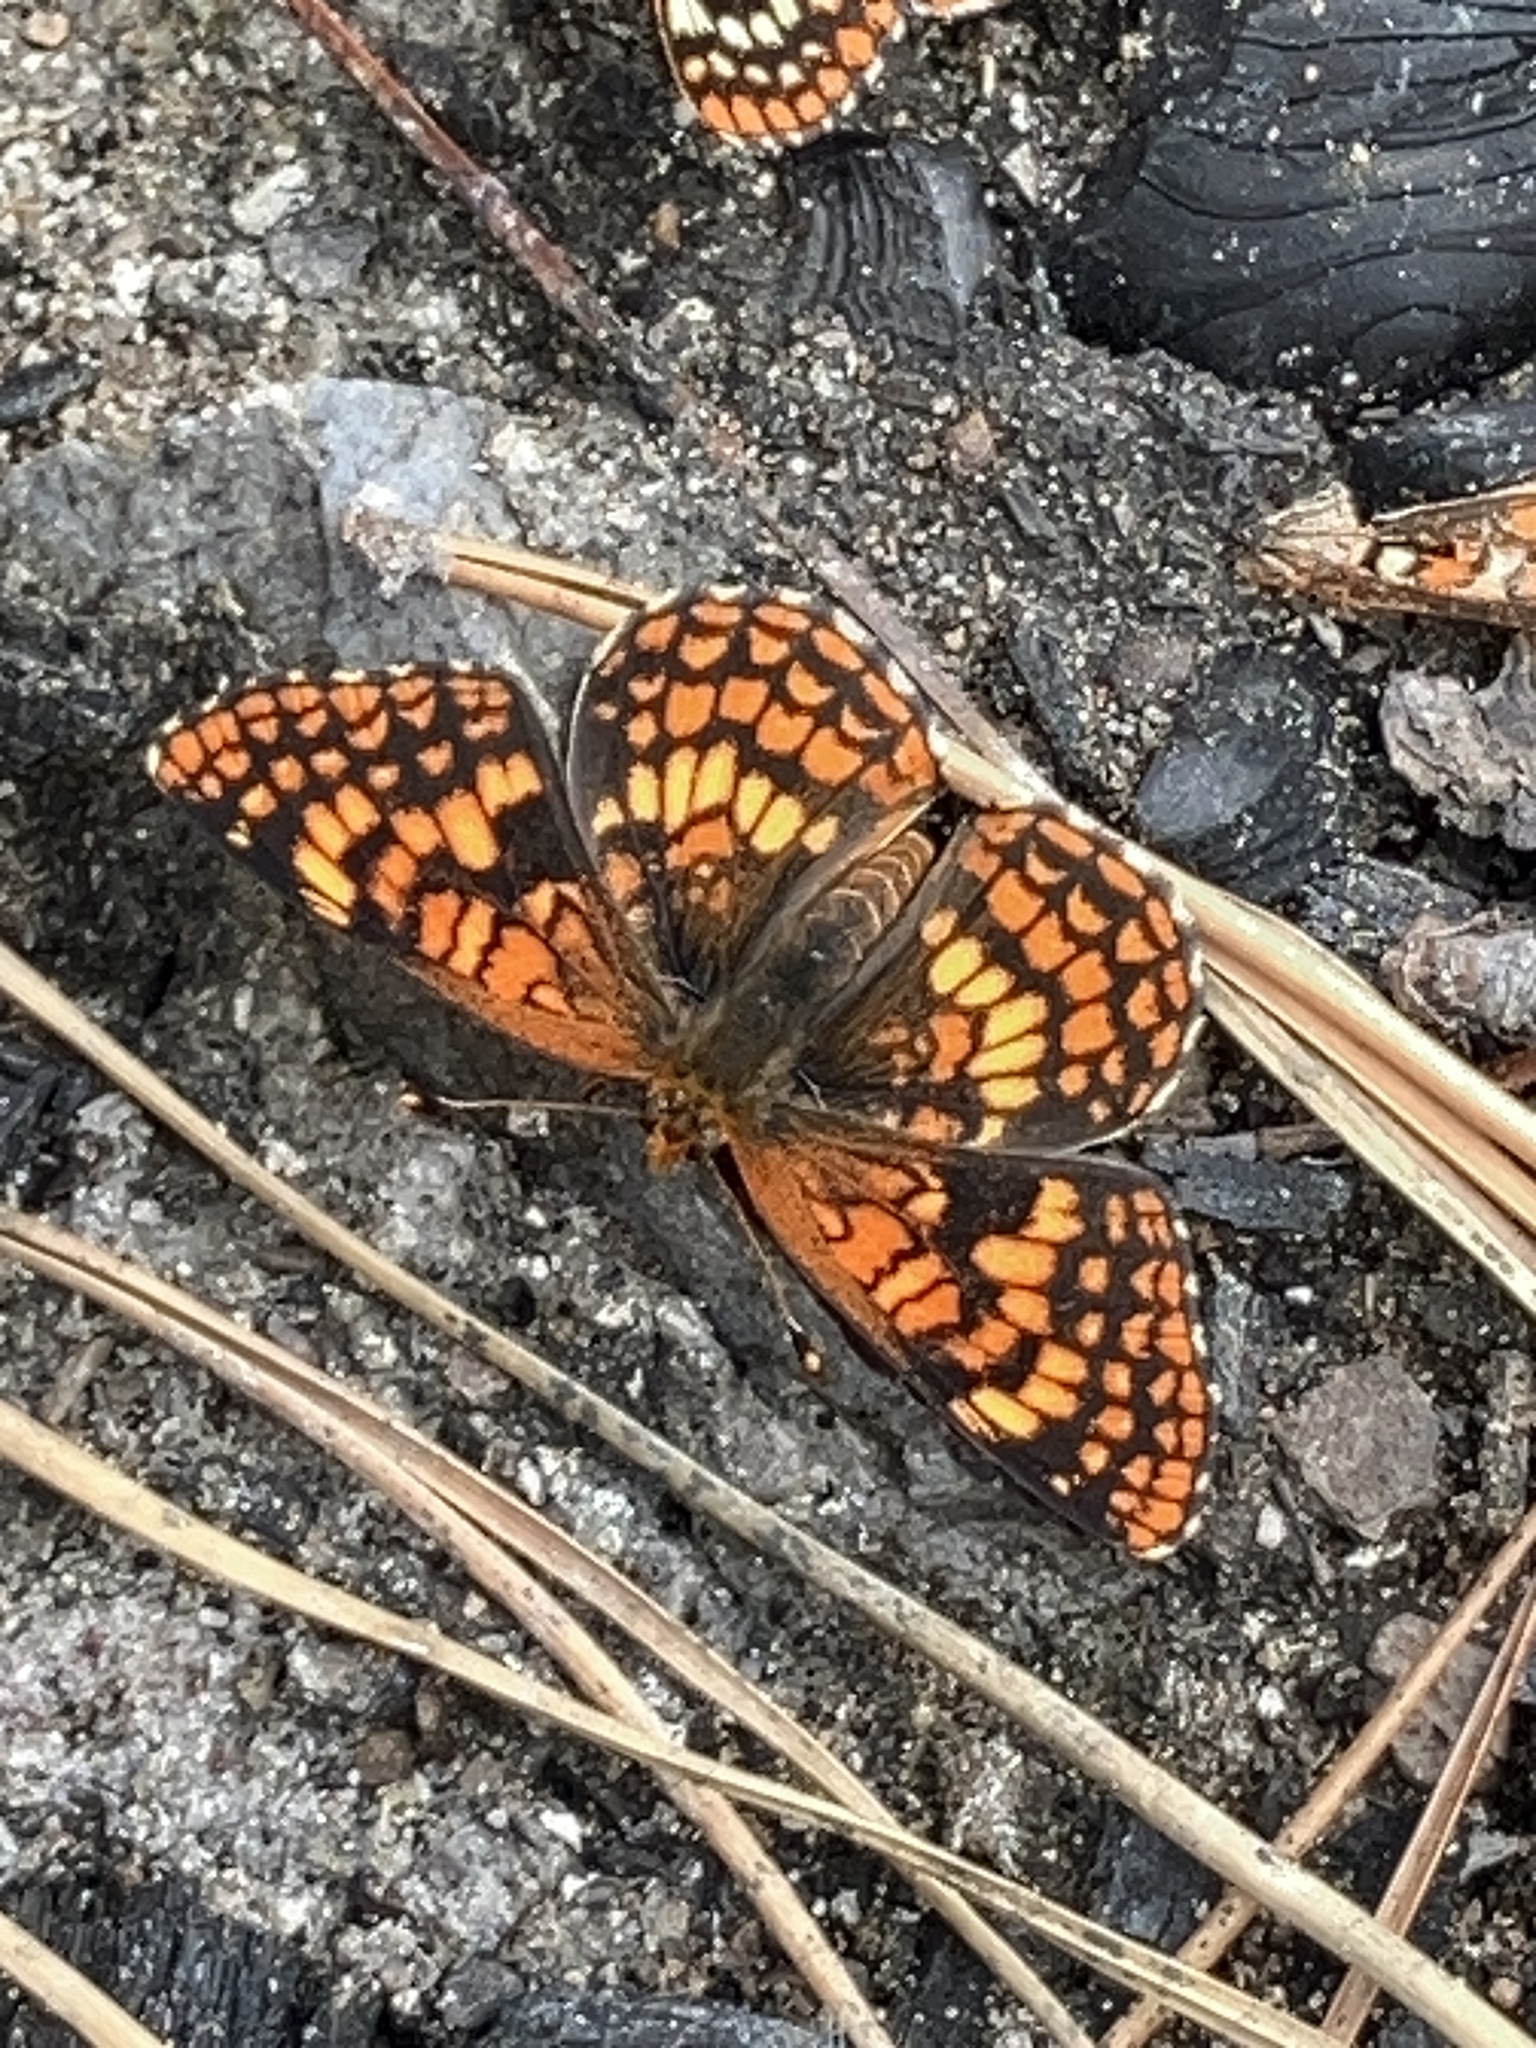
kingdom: Animalia
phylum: Arthropoda
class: Insecta
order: Lepidoptera
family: Nymphalidae
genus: Chlosyne
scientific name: Chlosyne palla
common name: Northern checkerspot
